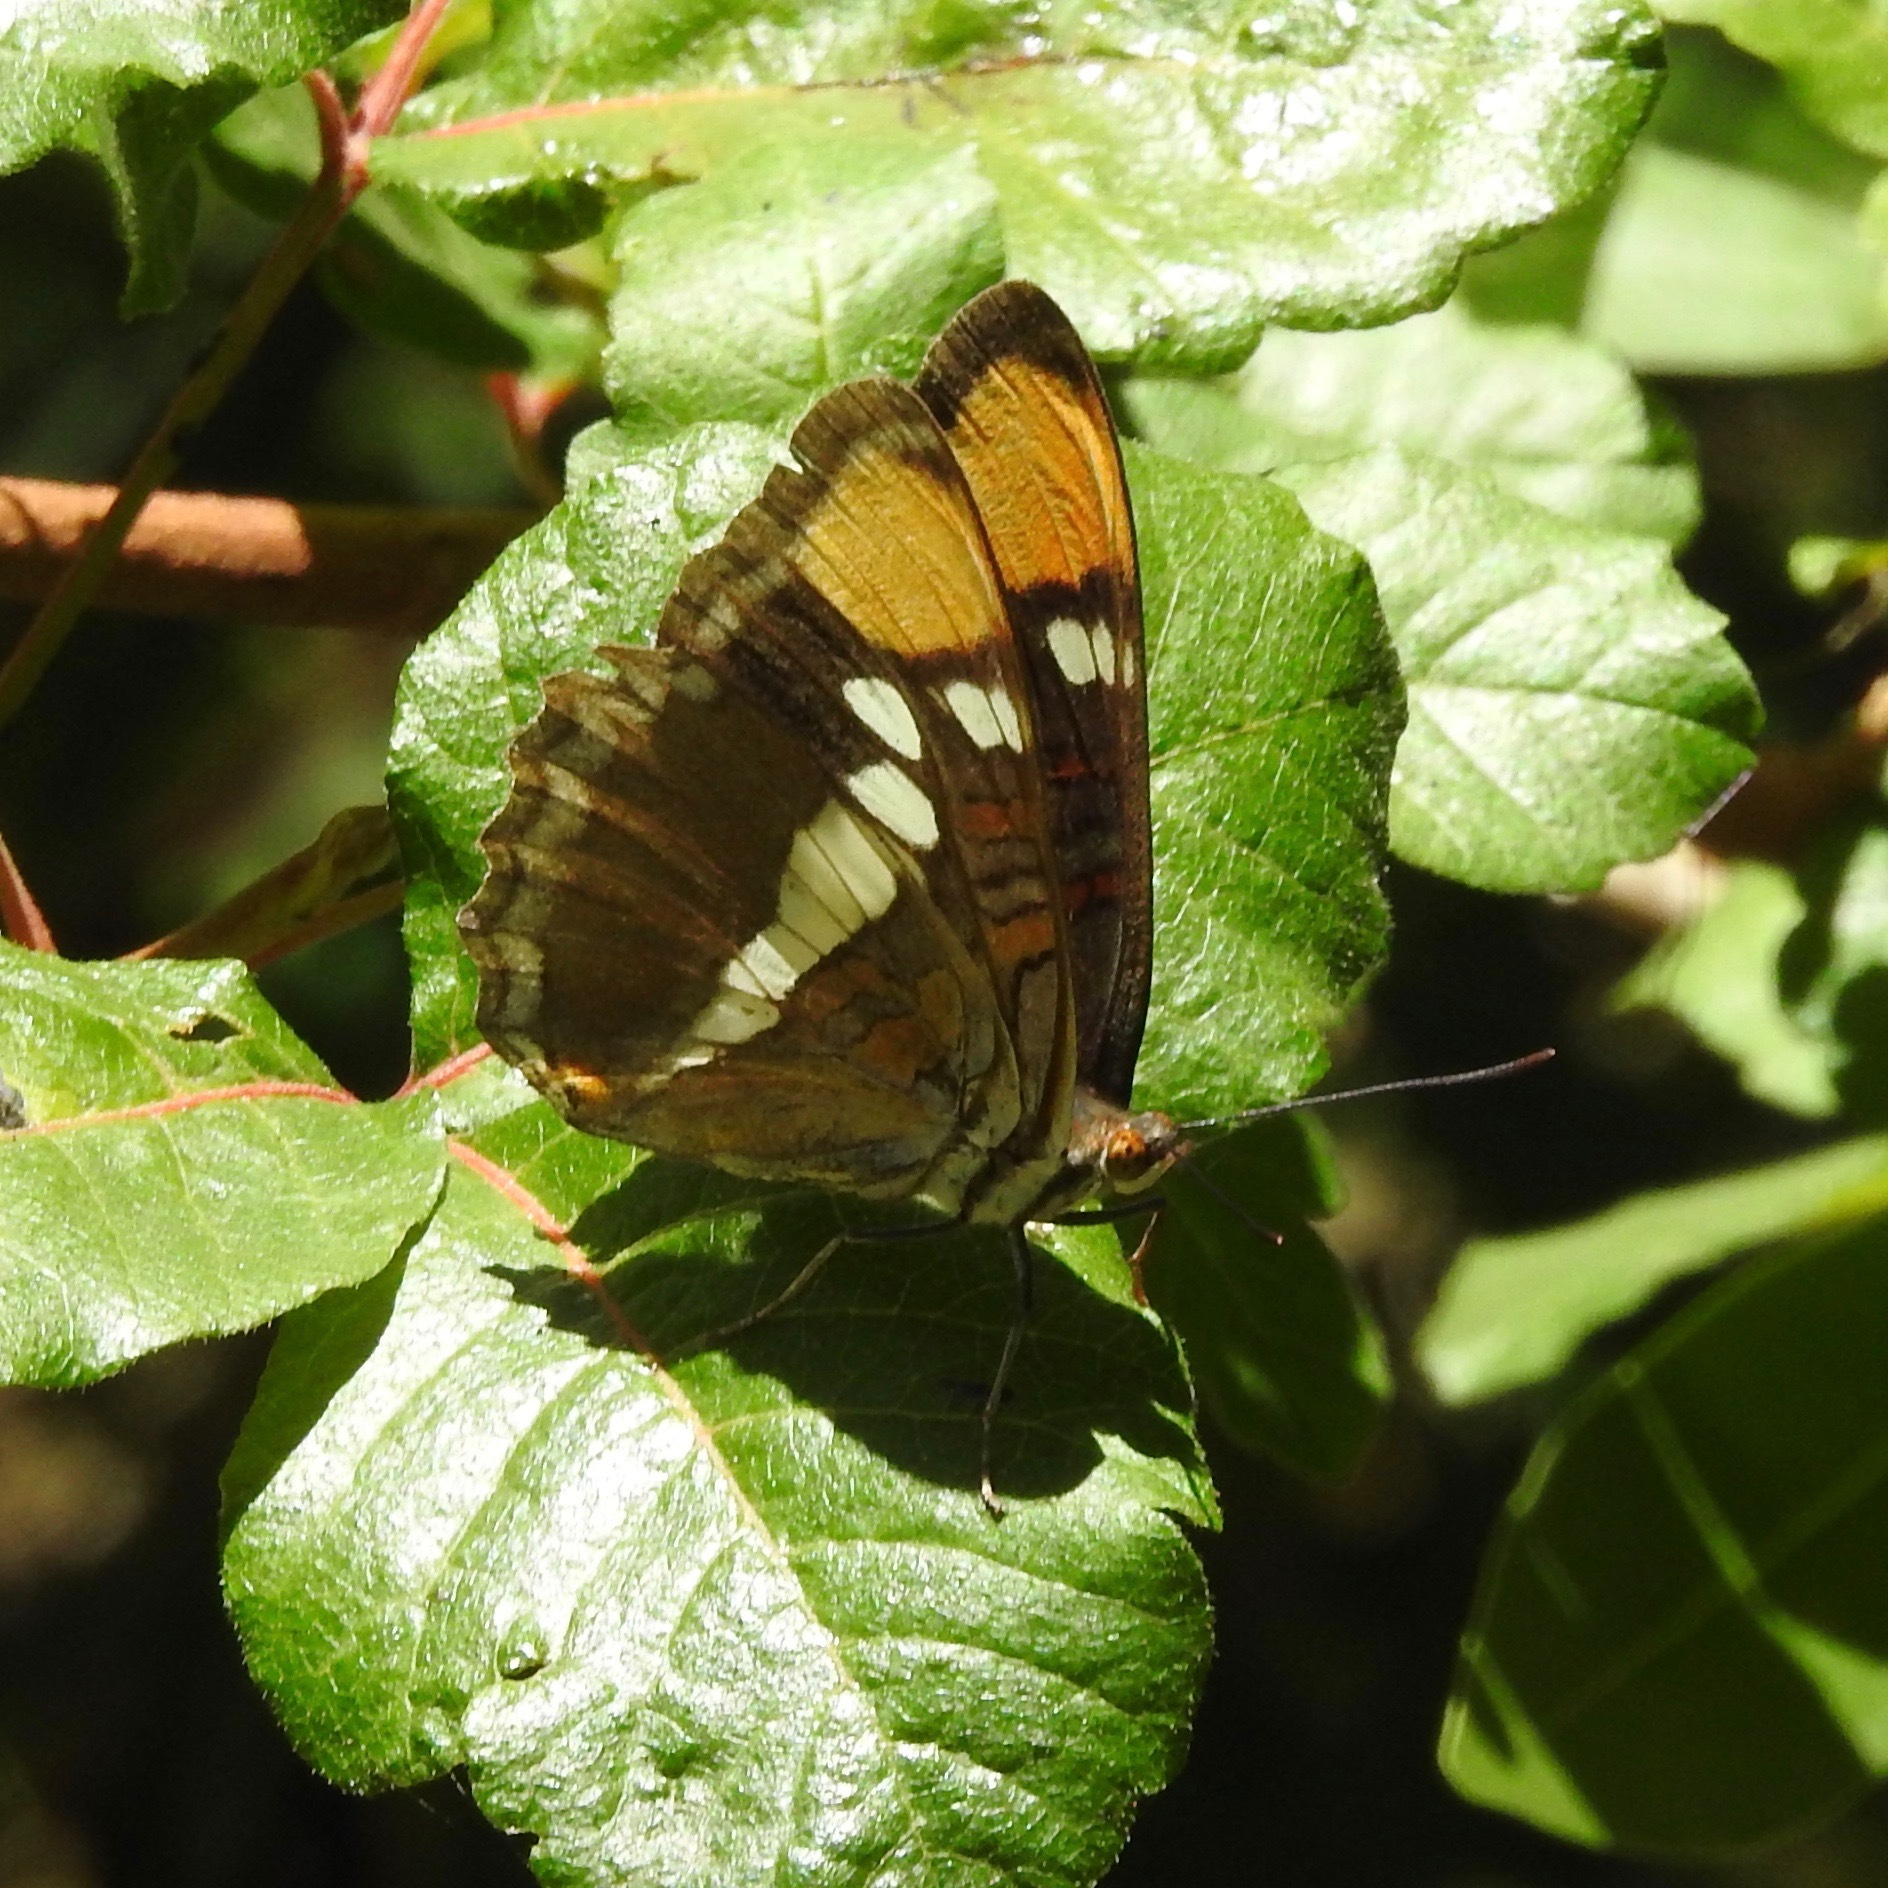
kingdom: Animalia
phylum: Arthropoda
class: Insecta
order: Lepidoptera
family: Nymphalidae
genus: Limenitis
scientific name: Limenitis bredowii
